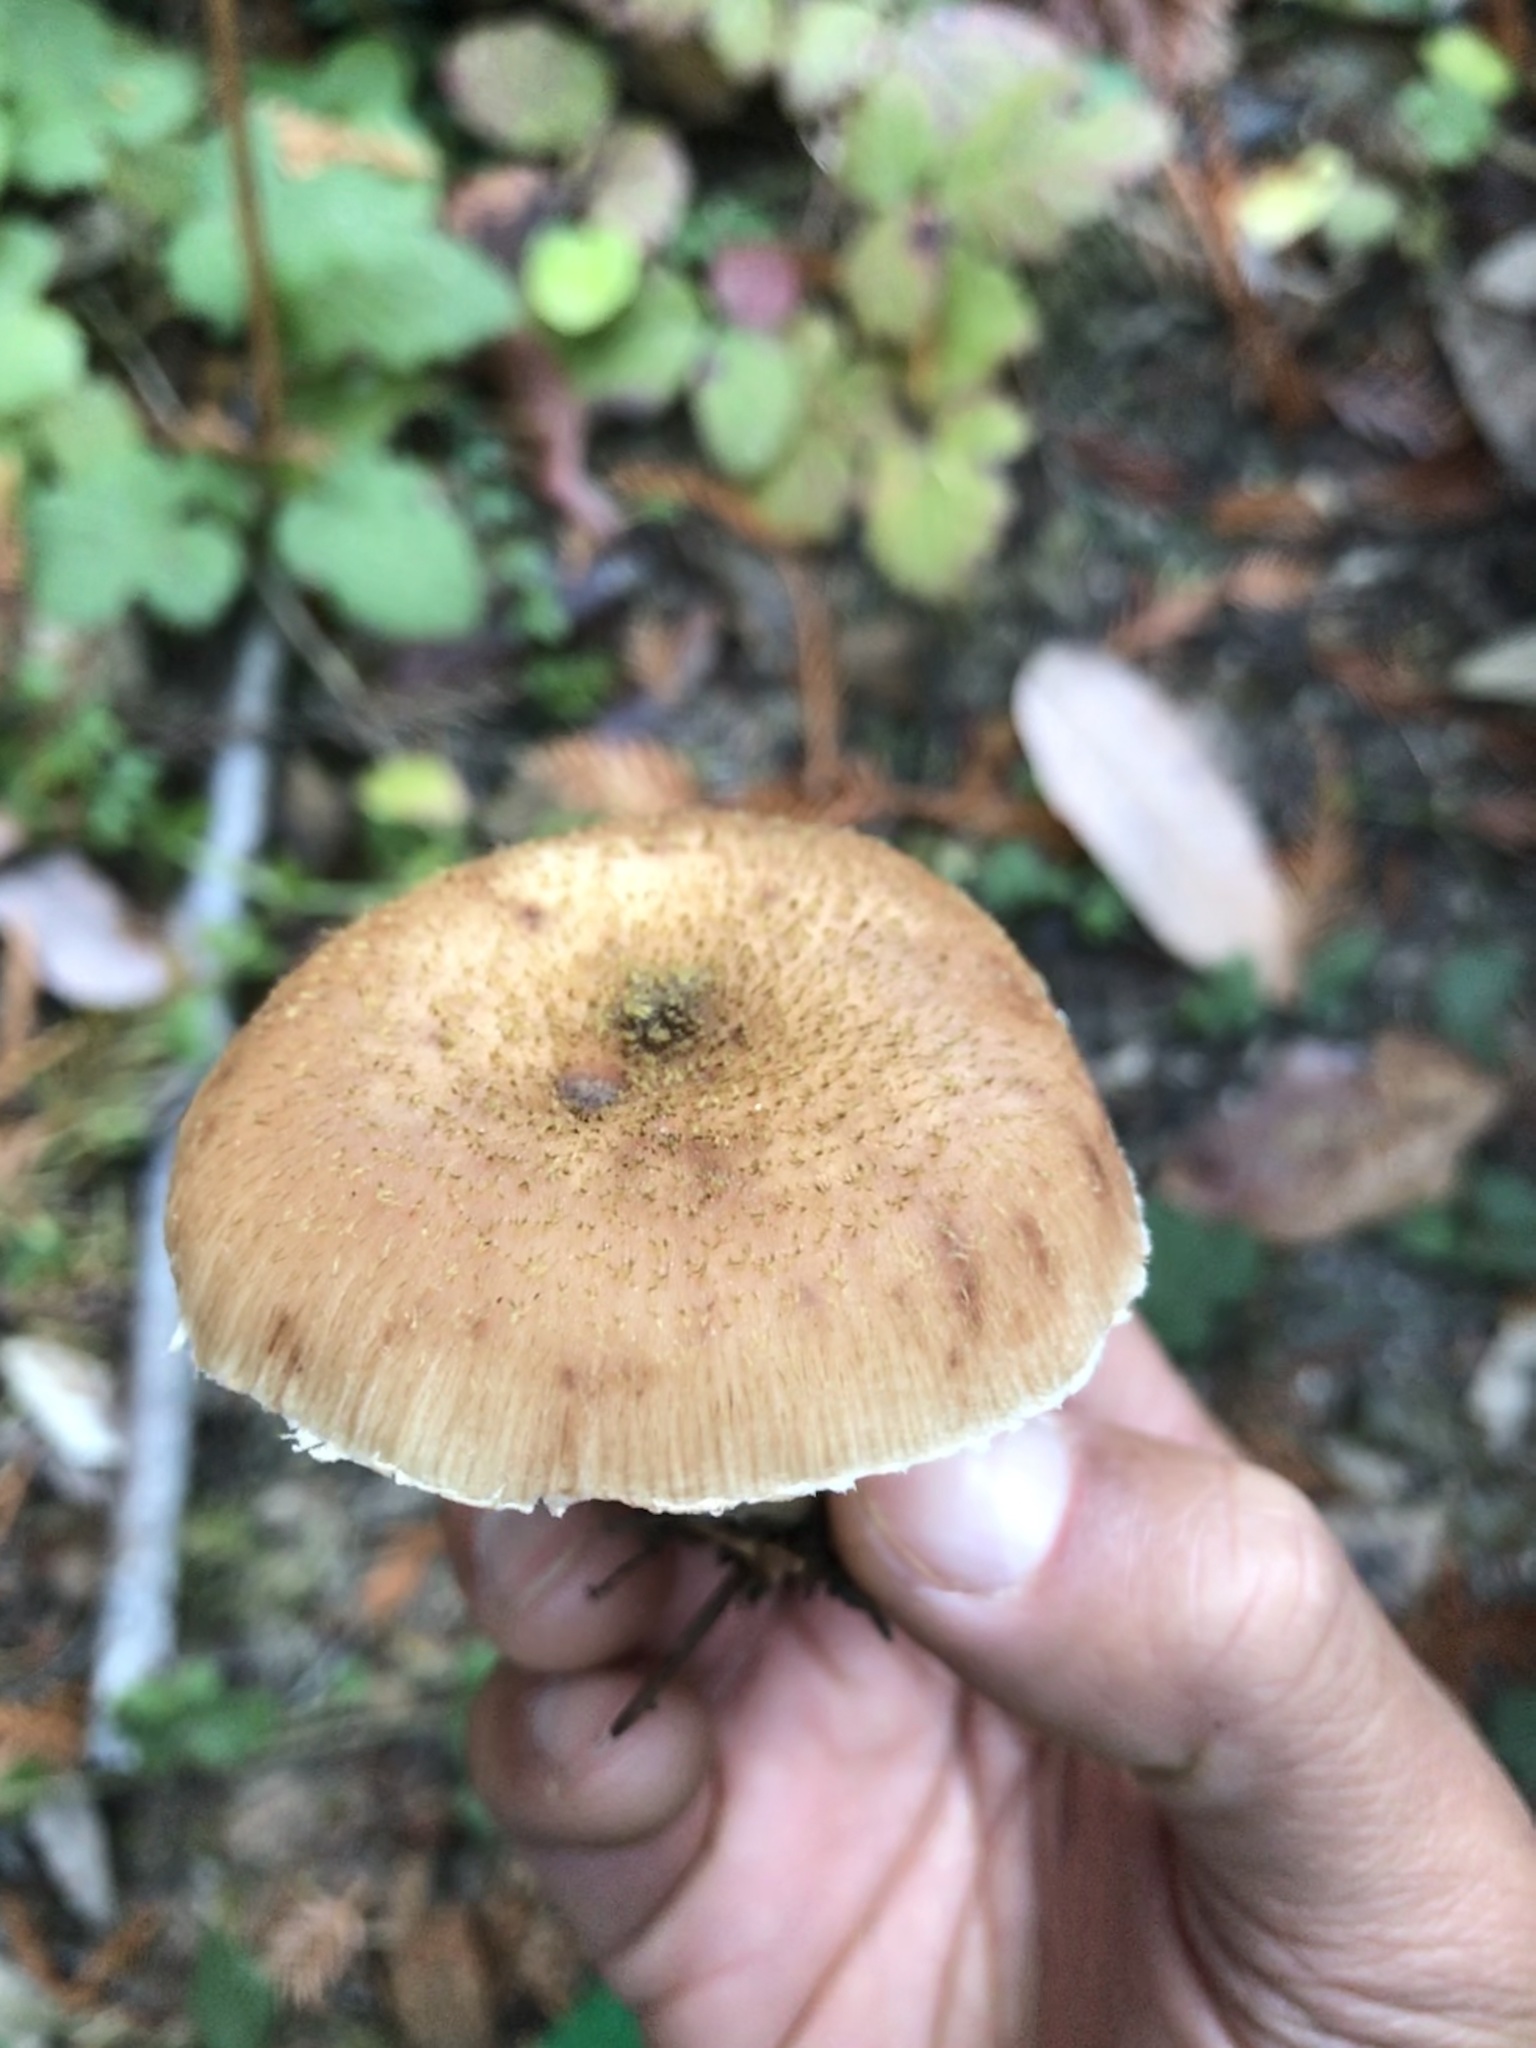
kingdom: Fungi
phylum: Basidiomycota
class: Agaricomycetes
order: Agaricales
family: Physalacriaceae
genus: Armillaria
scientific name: Armillaria sinapina
